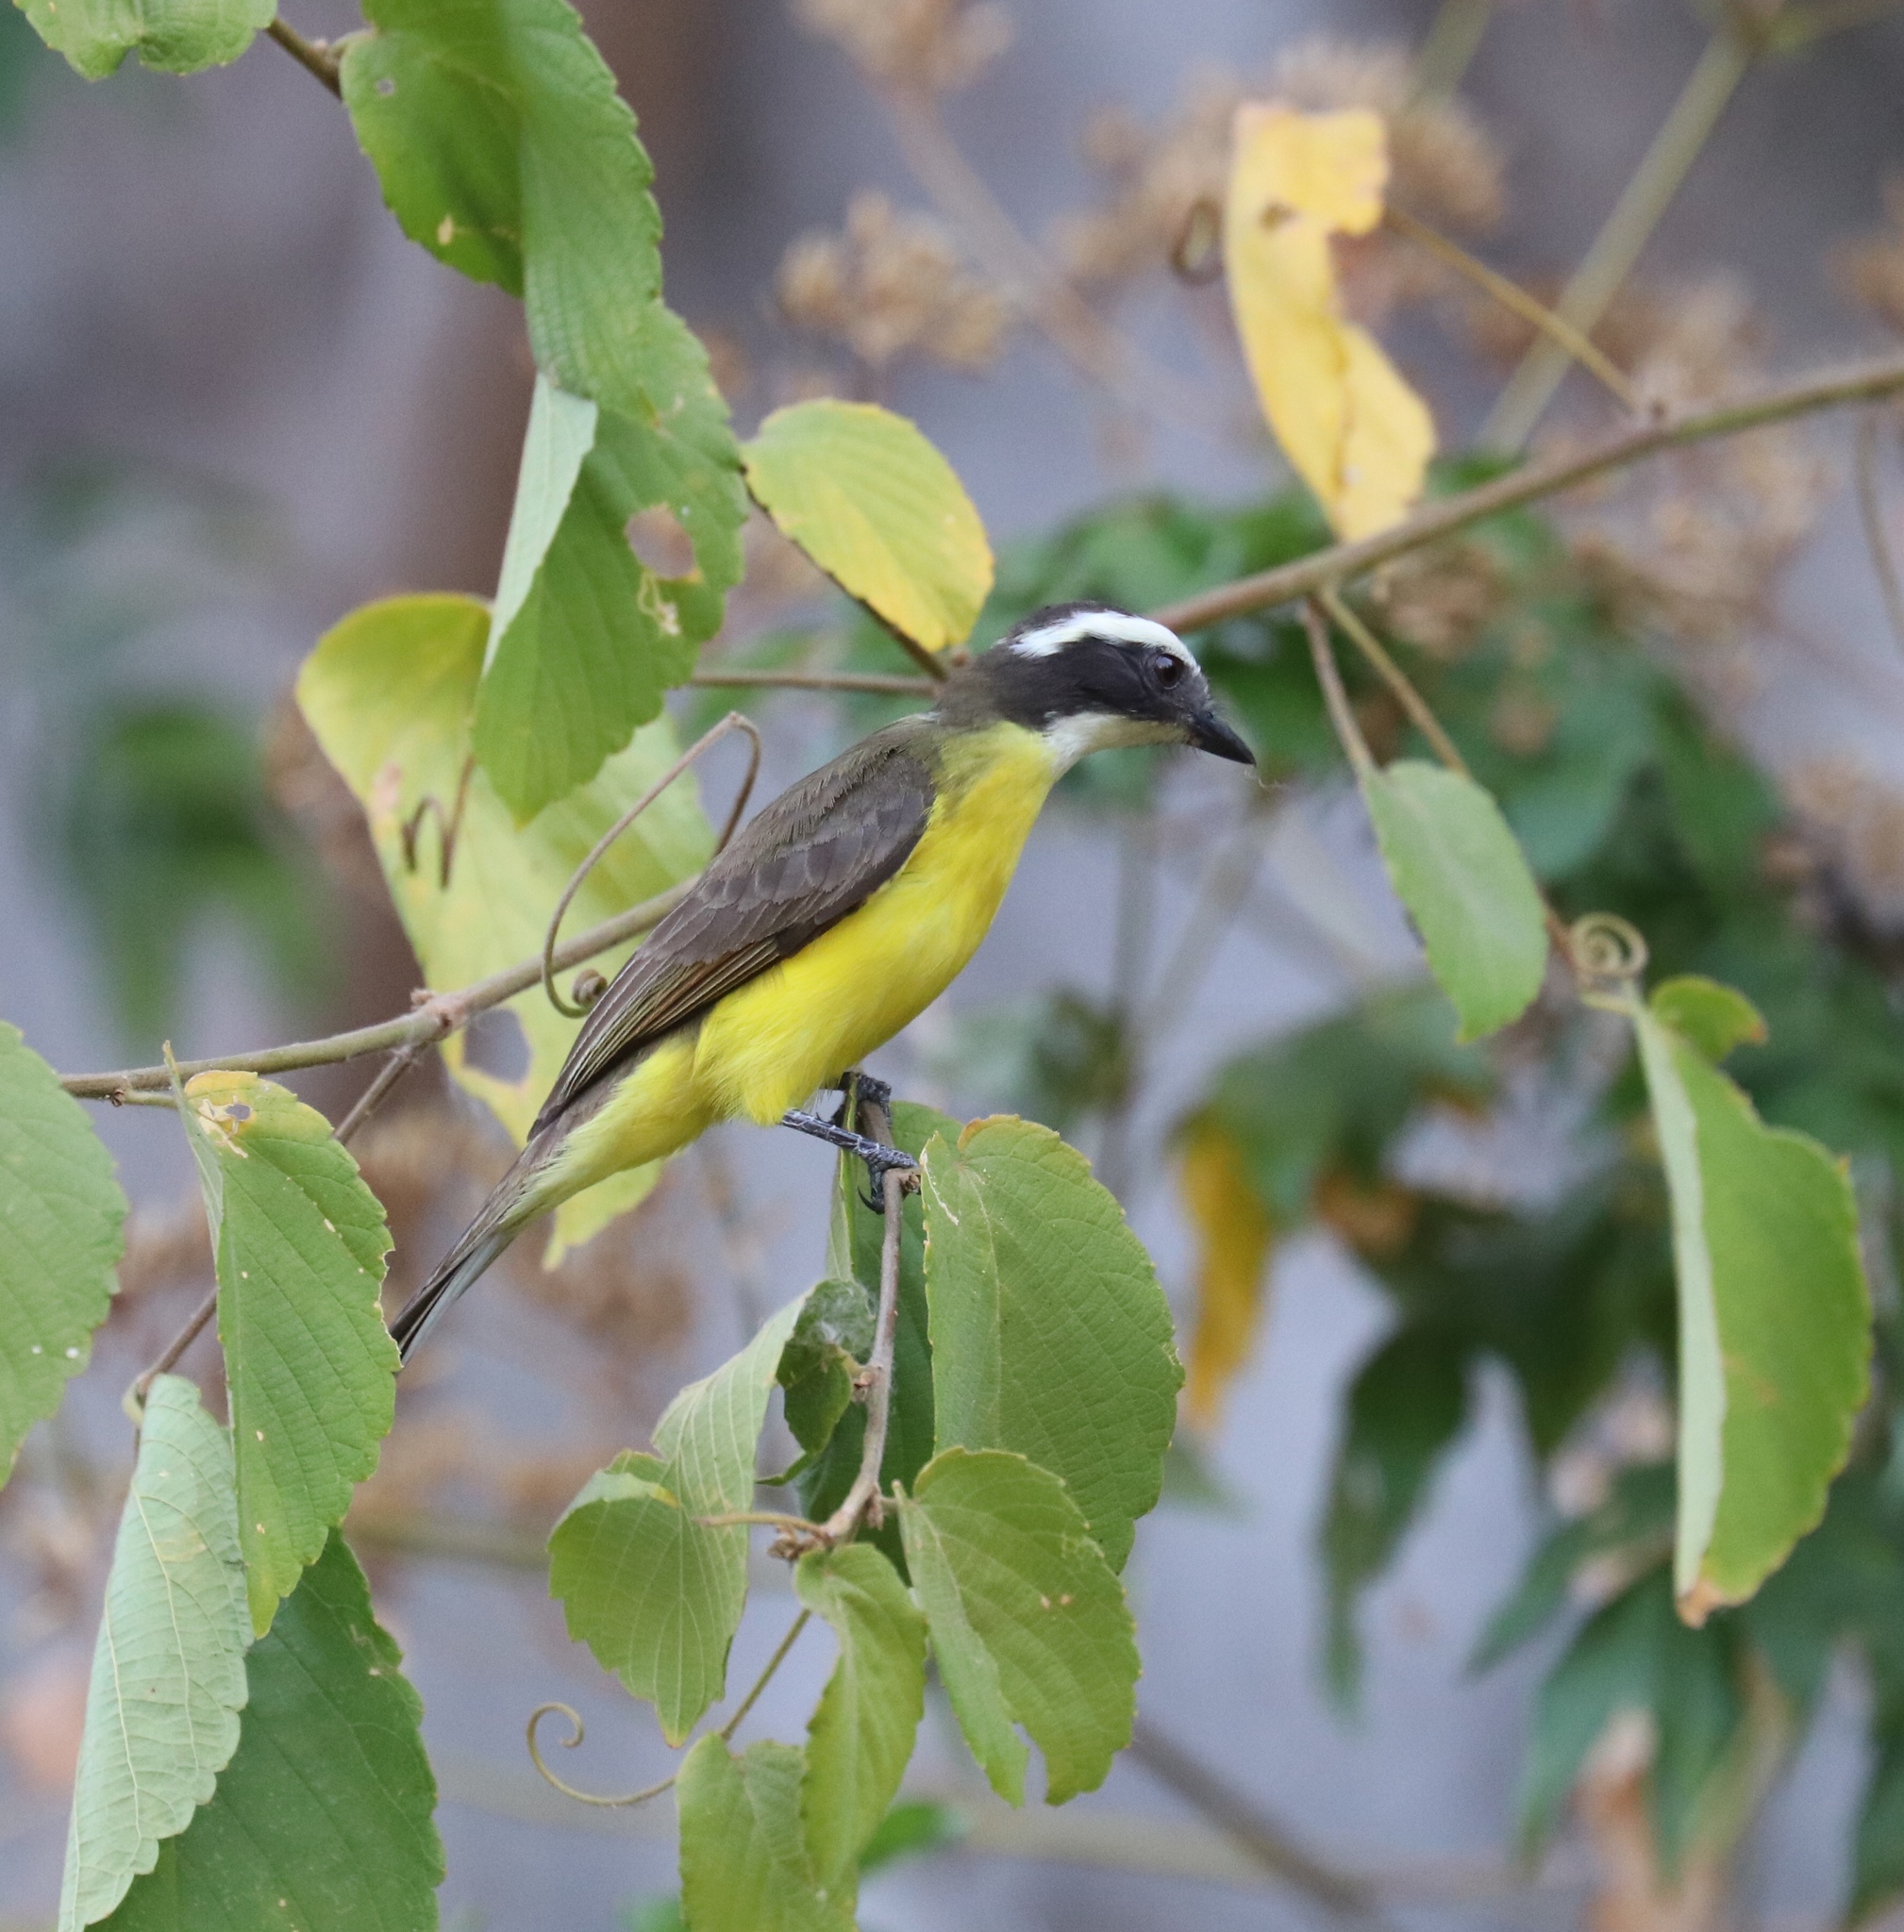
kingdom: Animalia
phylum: Chordata
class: Aves
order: Passeriformes
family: Tyrannidae
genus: Myiozetetes
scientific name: Myiozetetes similis
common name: Social flycatcher
